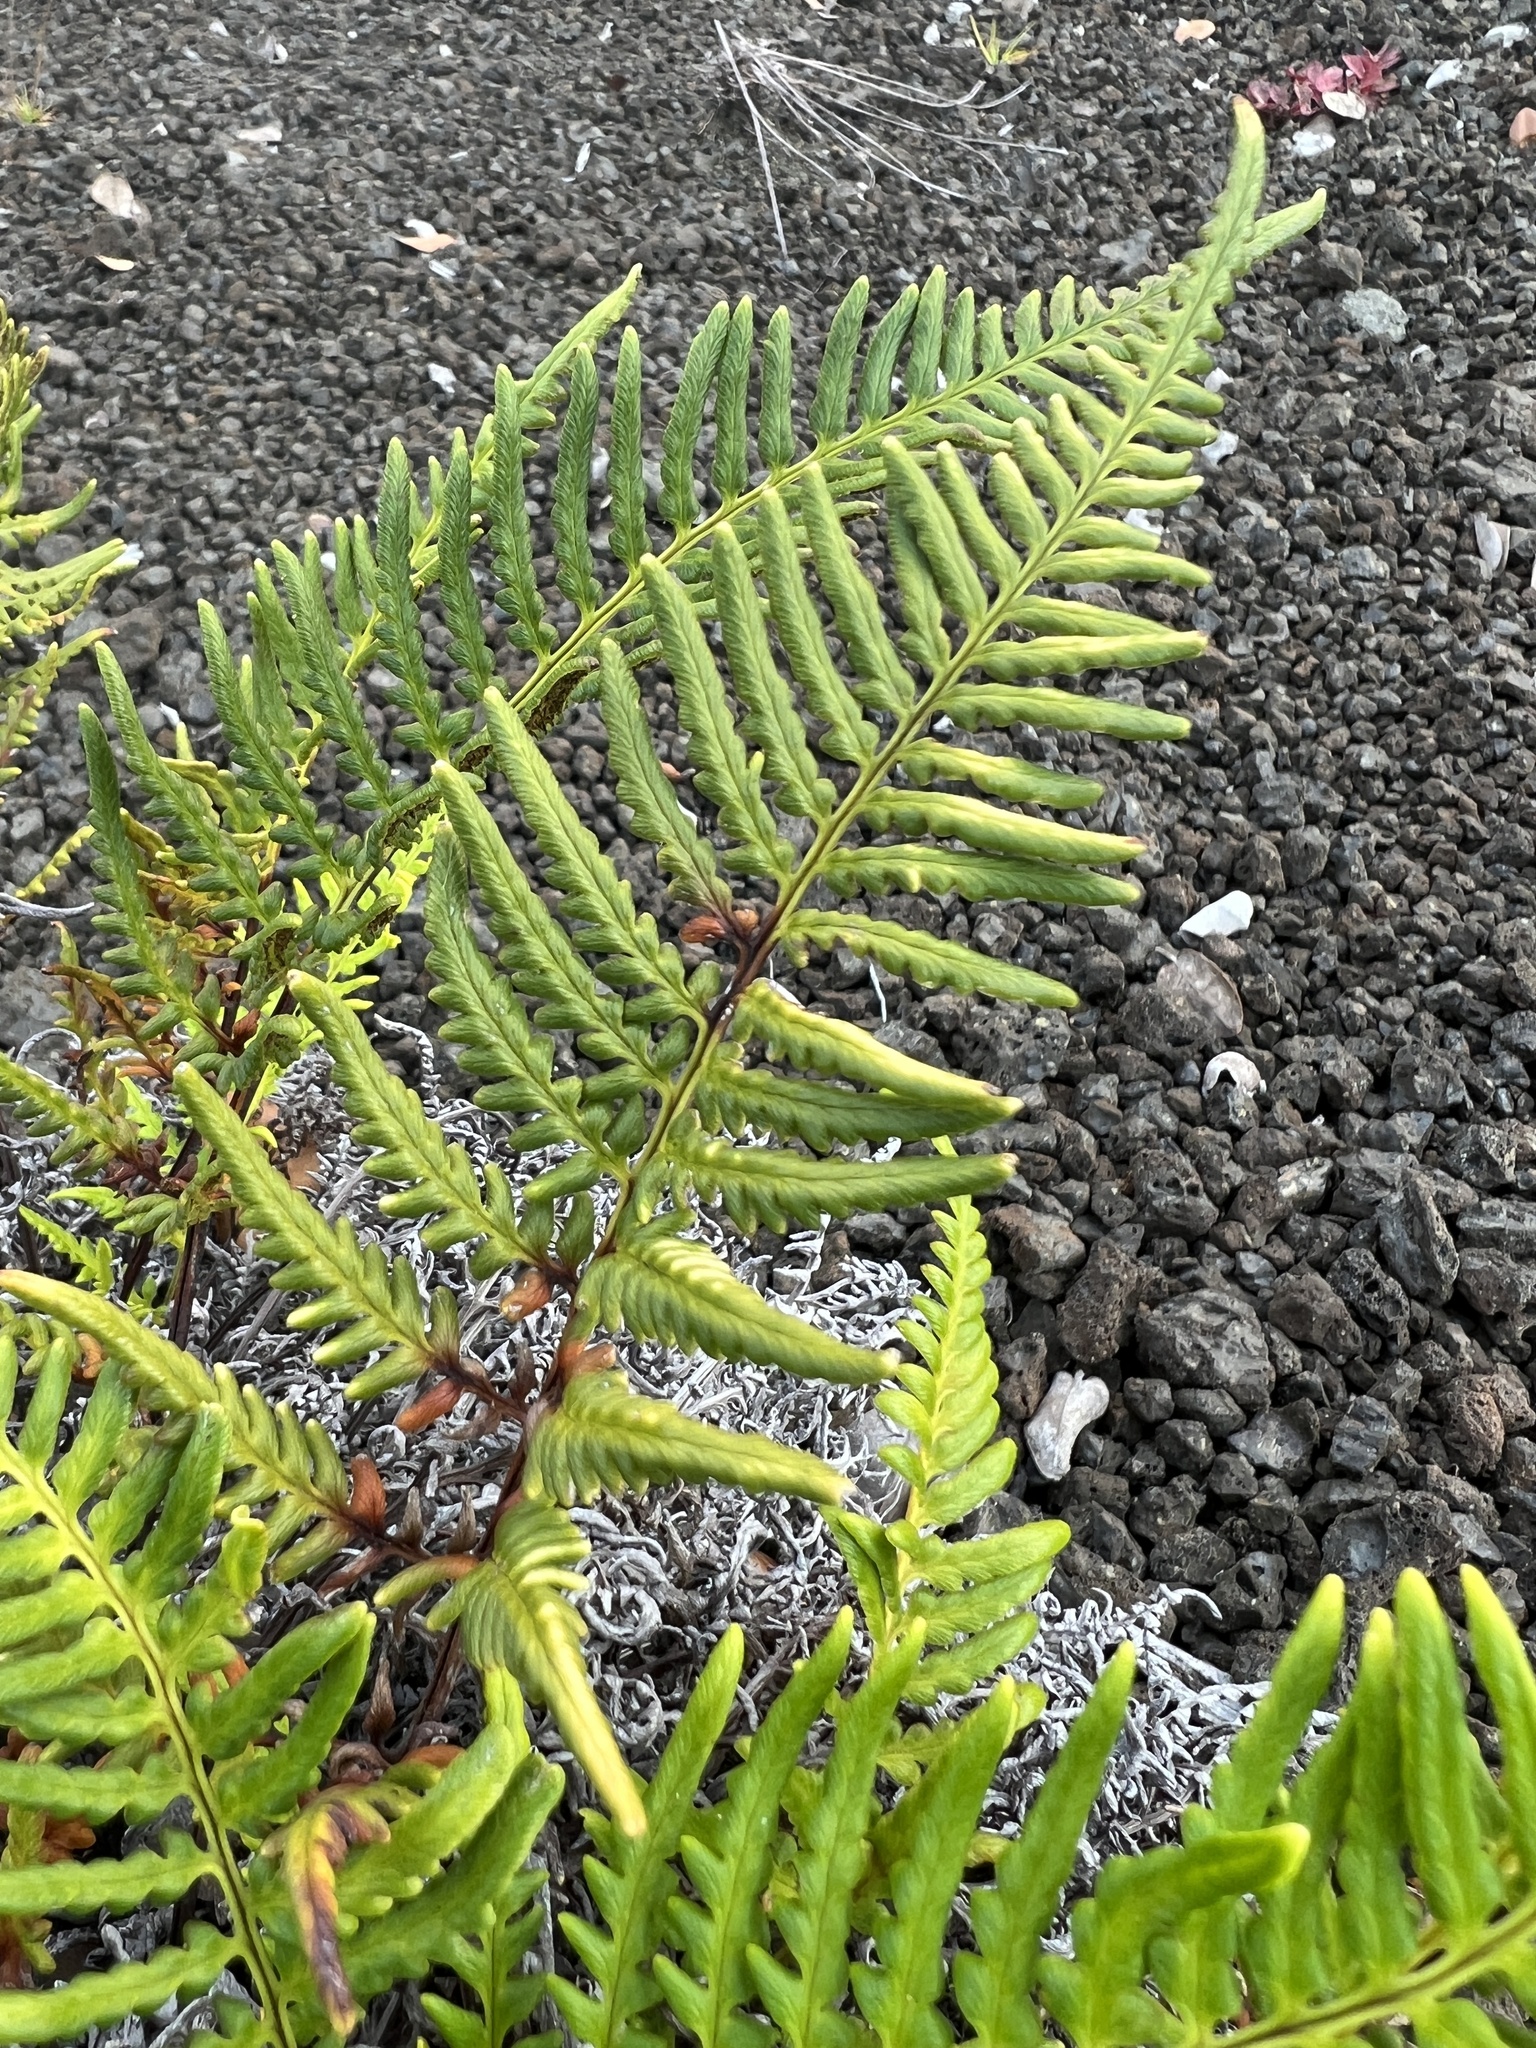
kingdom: Plantae
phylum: Tracheophyta
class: Polypodiopsida
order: Polypodiales
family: Pteridaceae
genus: Pityrogramma
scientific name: Pityrogramma austroamericana
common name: Leatherleaf goldback fern
